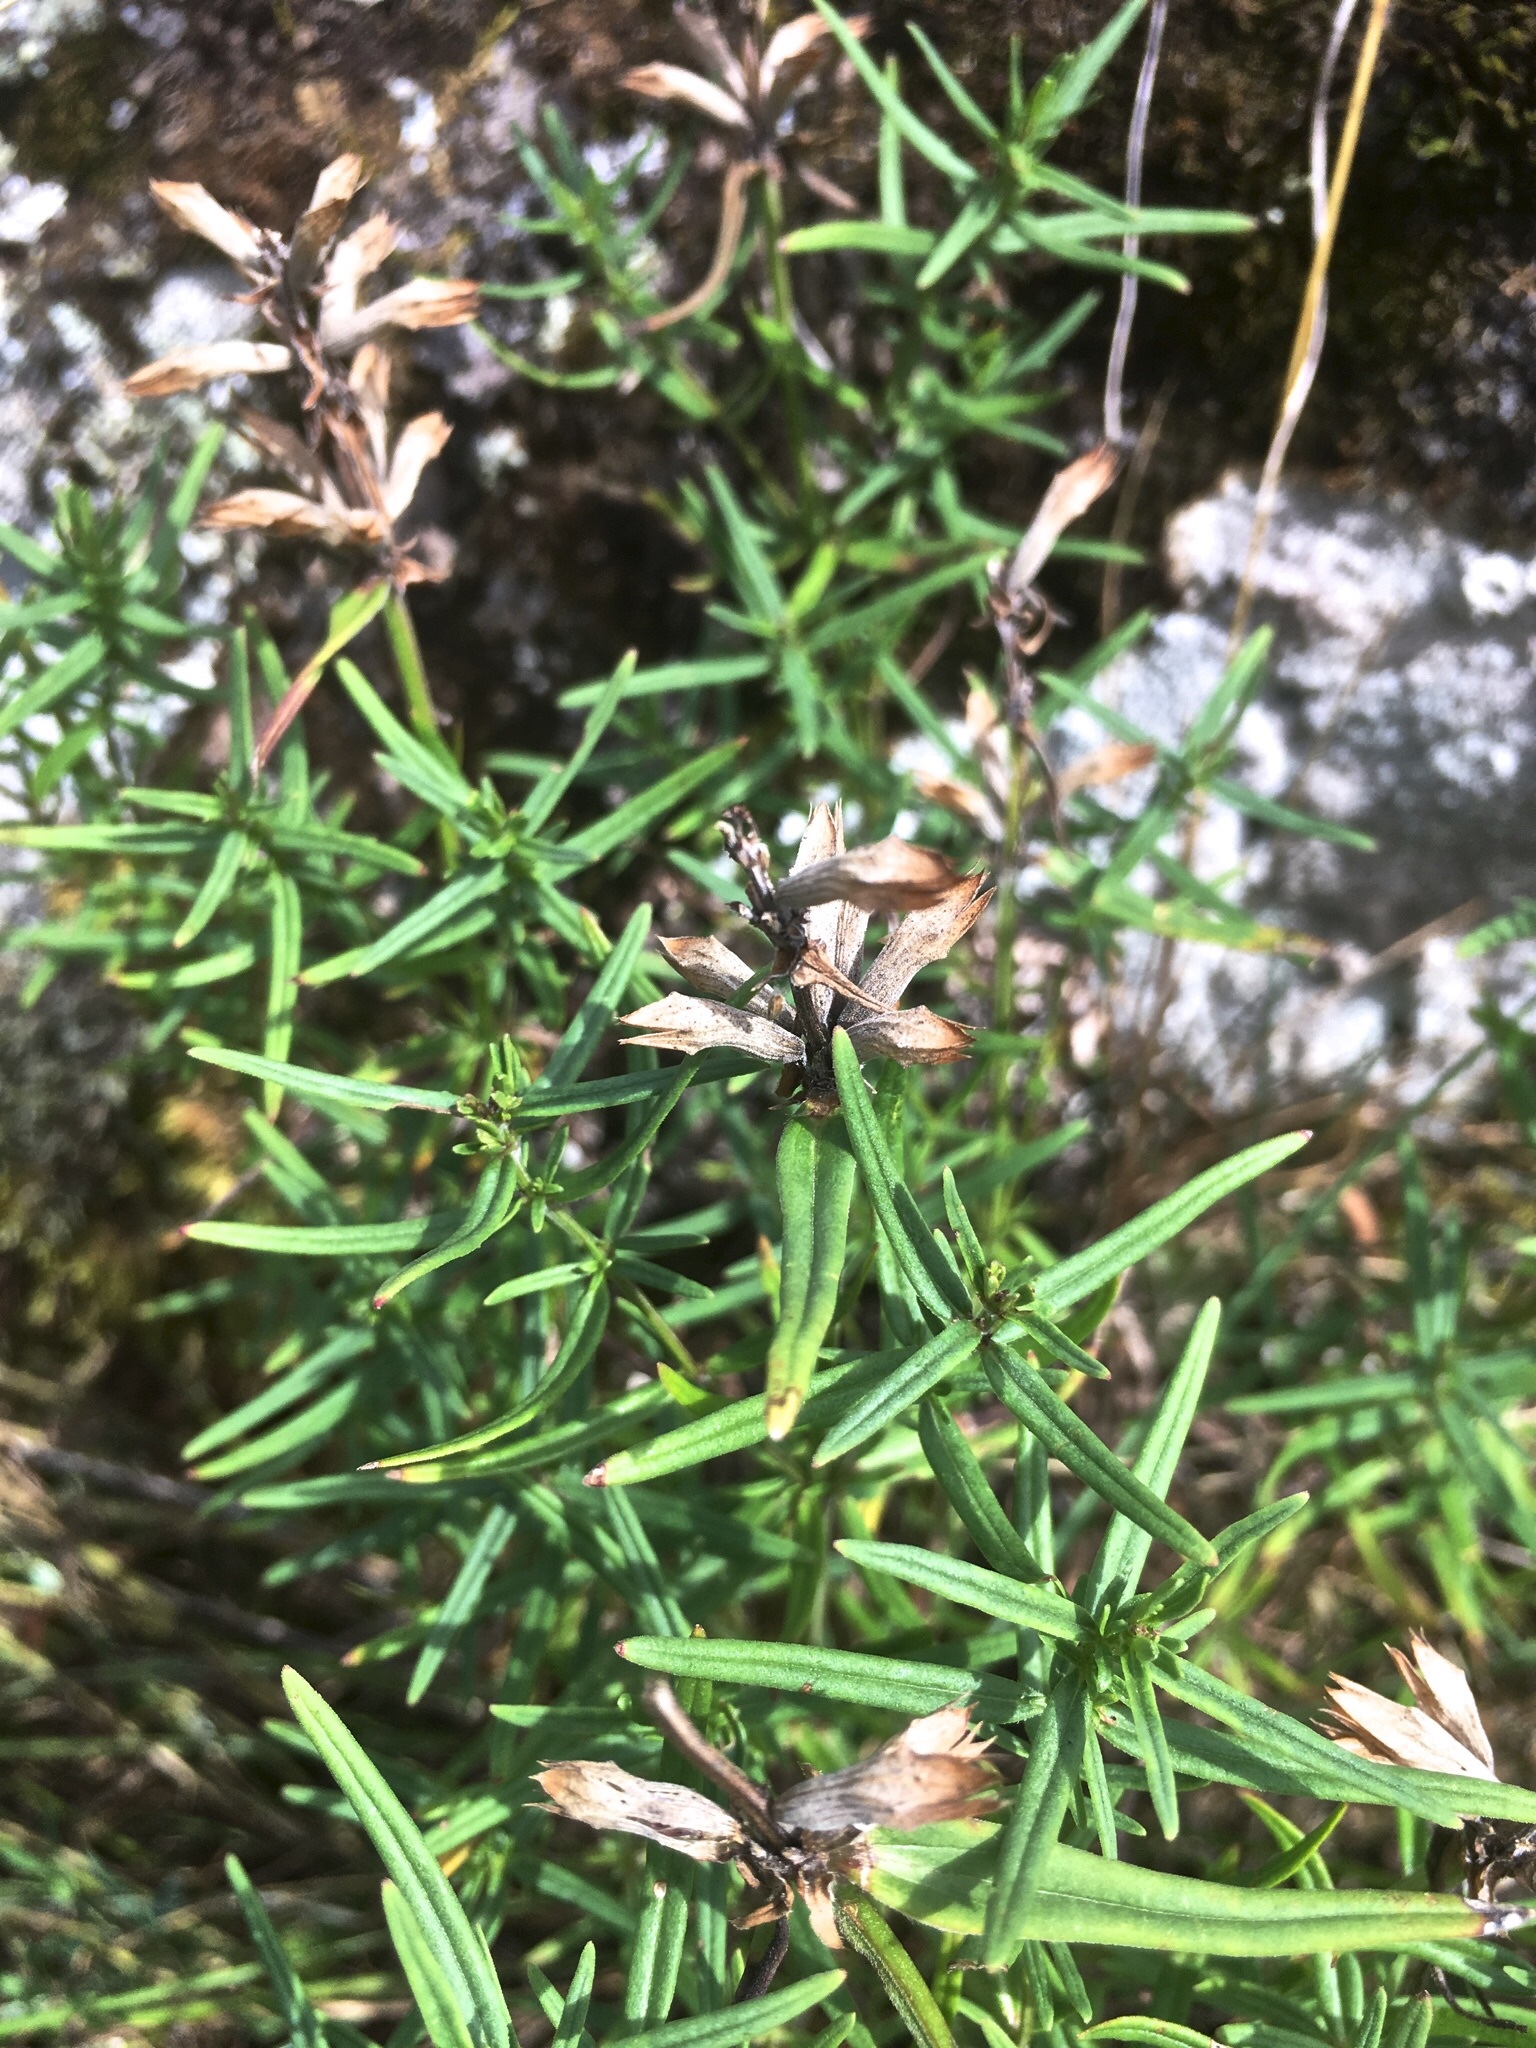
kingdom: Plantae
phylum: Tracheophyta
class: Magnoliopsida
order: Lamiales
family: Lamiaceae
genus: Dracocephalum
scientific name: Dracocephalum ruyschiana
